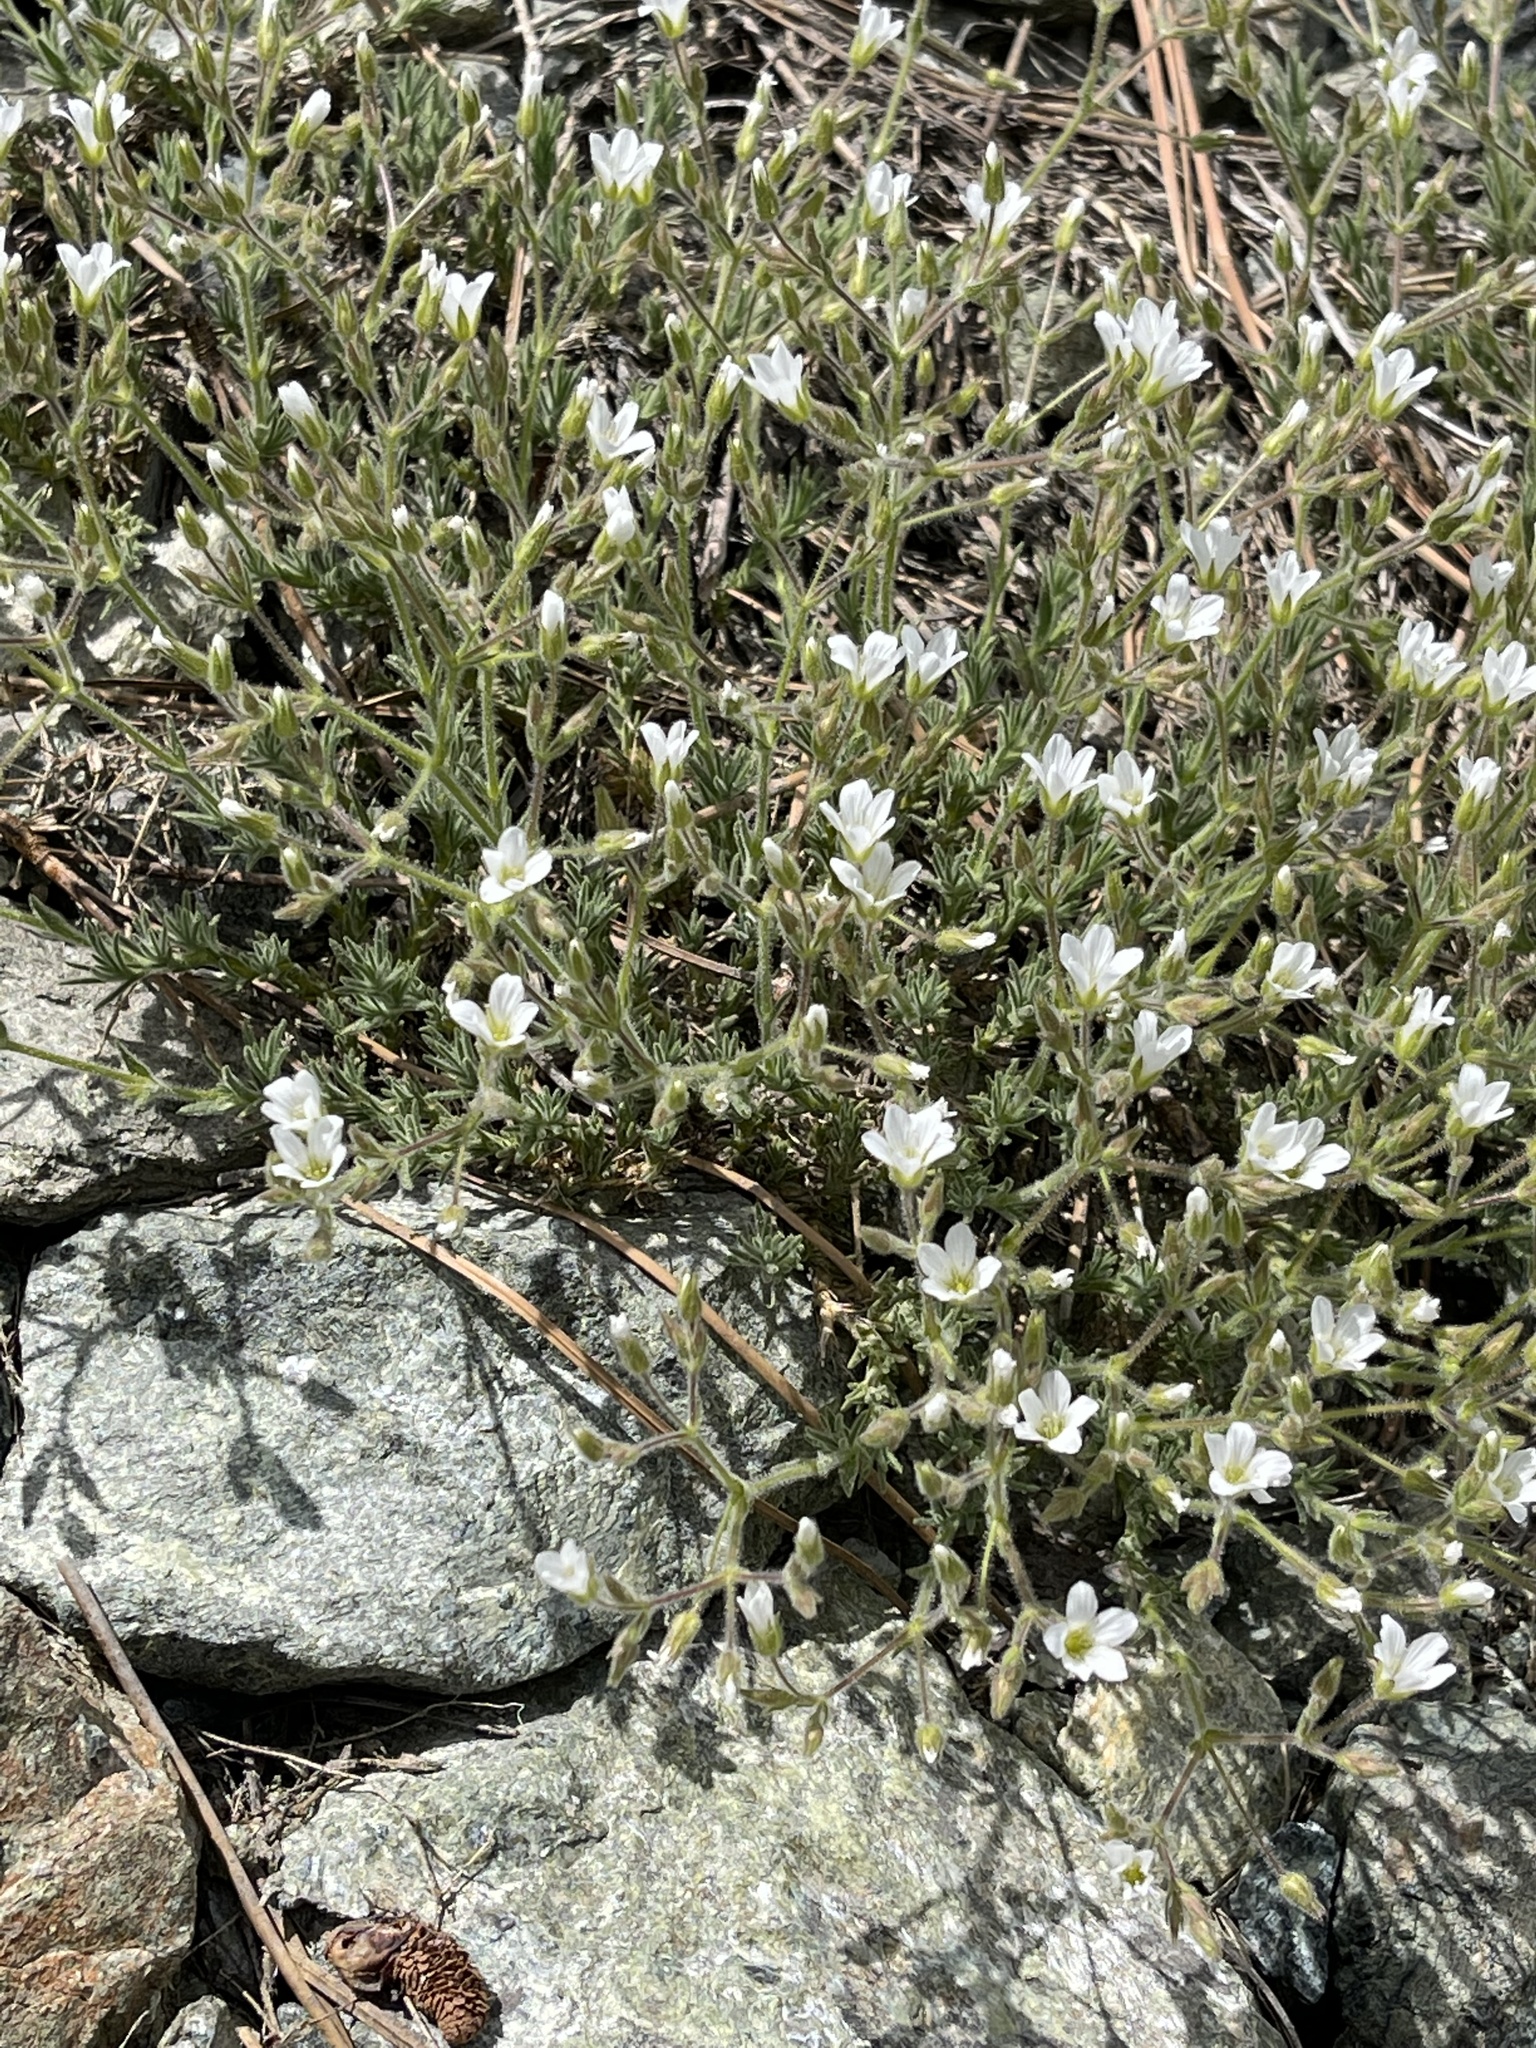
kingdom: Plantae
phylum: Tracheophyta
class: Magnoliopsida
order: Caryophyllales
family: Caryophyllaceae
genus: Sabulina
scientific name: Sabulina nuttallii
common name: Nuttall's stitchwort
